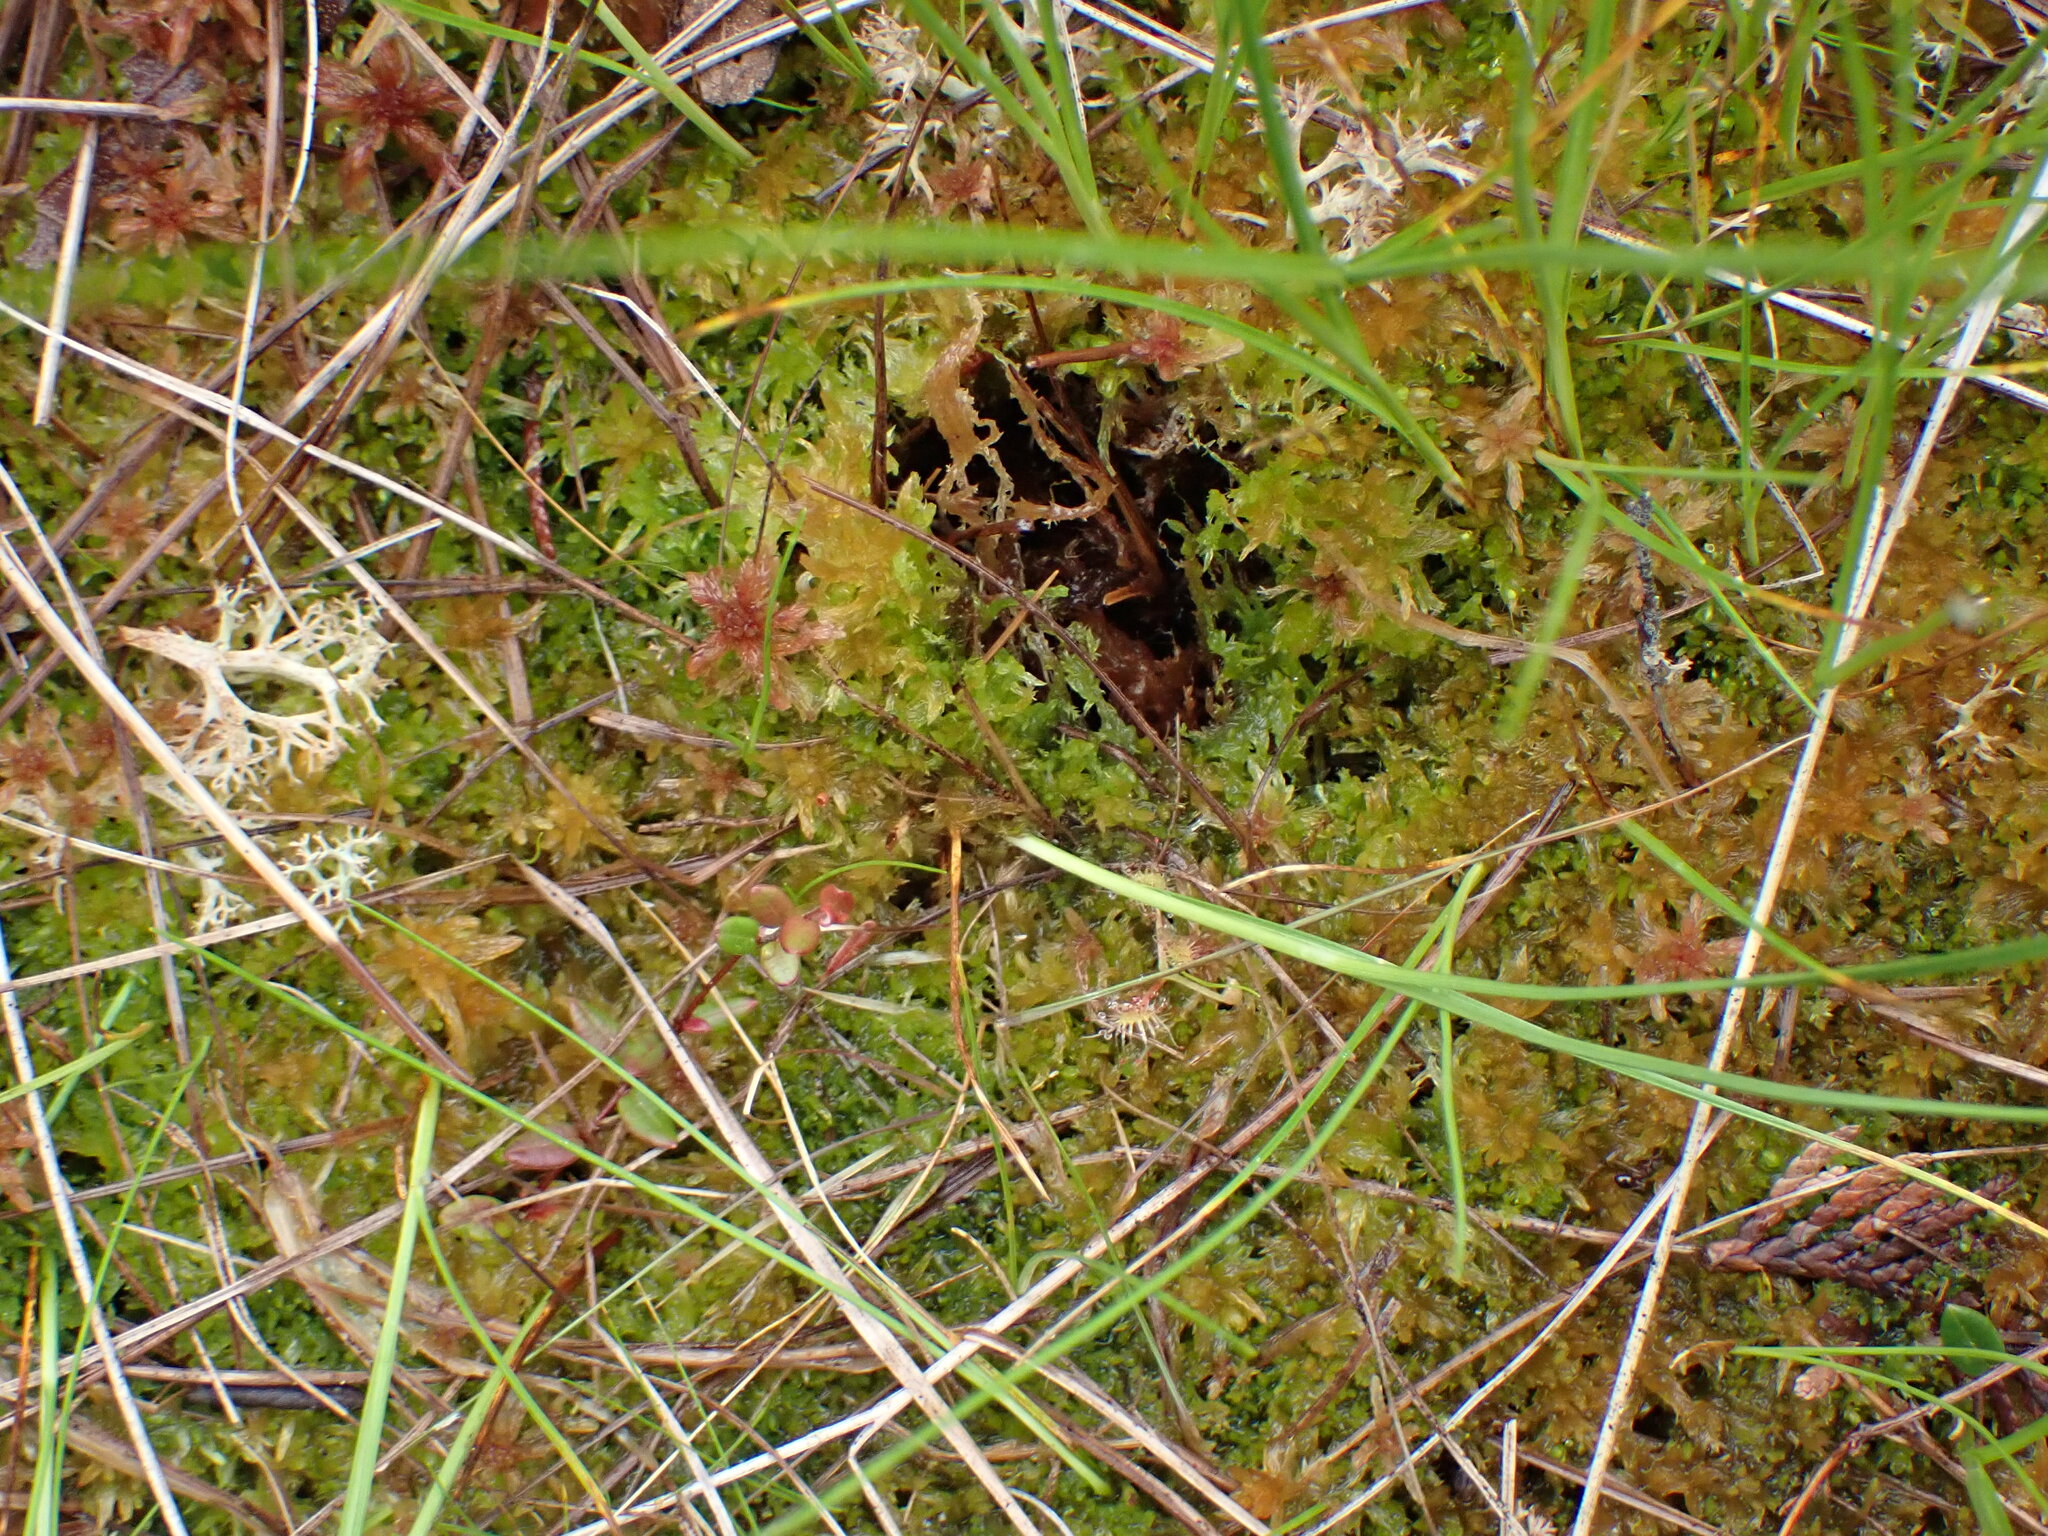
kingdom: Plantae
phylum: Bryophyta
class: Sphagnopsida
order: Sphagnales
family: Sphagnaceae
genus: Sphagnum
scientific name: Sphagnum tenellum
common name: Soft bog-moss
